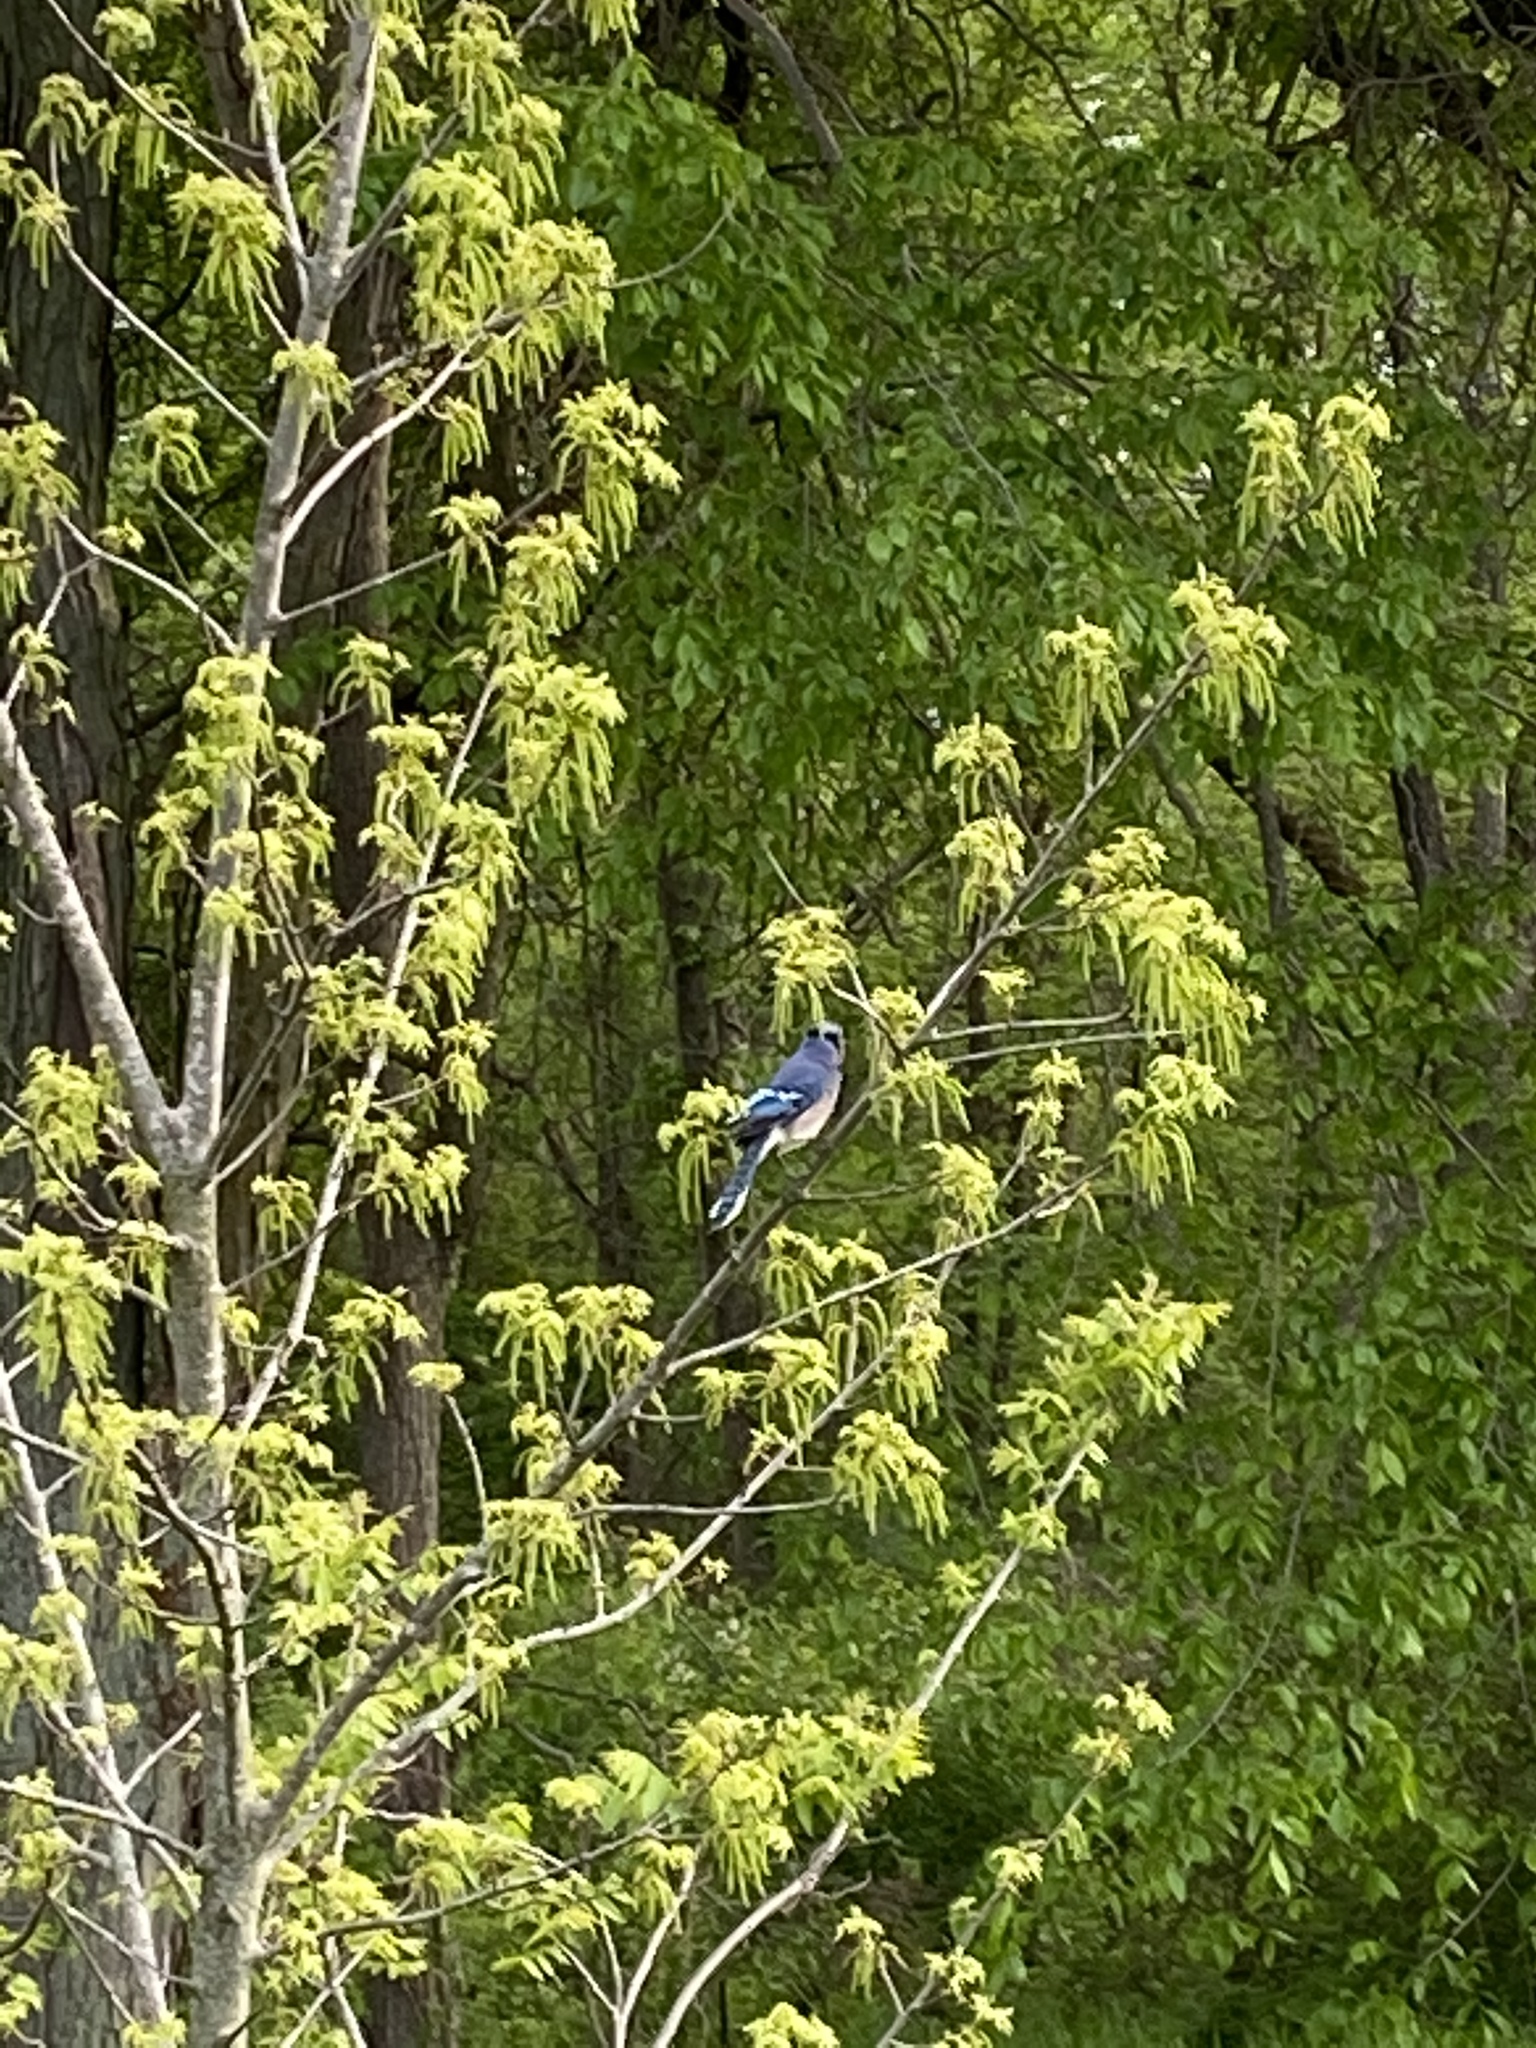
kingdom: Animalia
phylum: Chordata
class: Aves
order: Passeriformes
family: Corvidae
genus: Cyanocitta
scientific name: Cyanocitta cristata
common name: Blue jay
